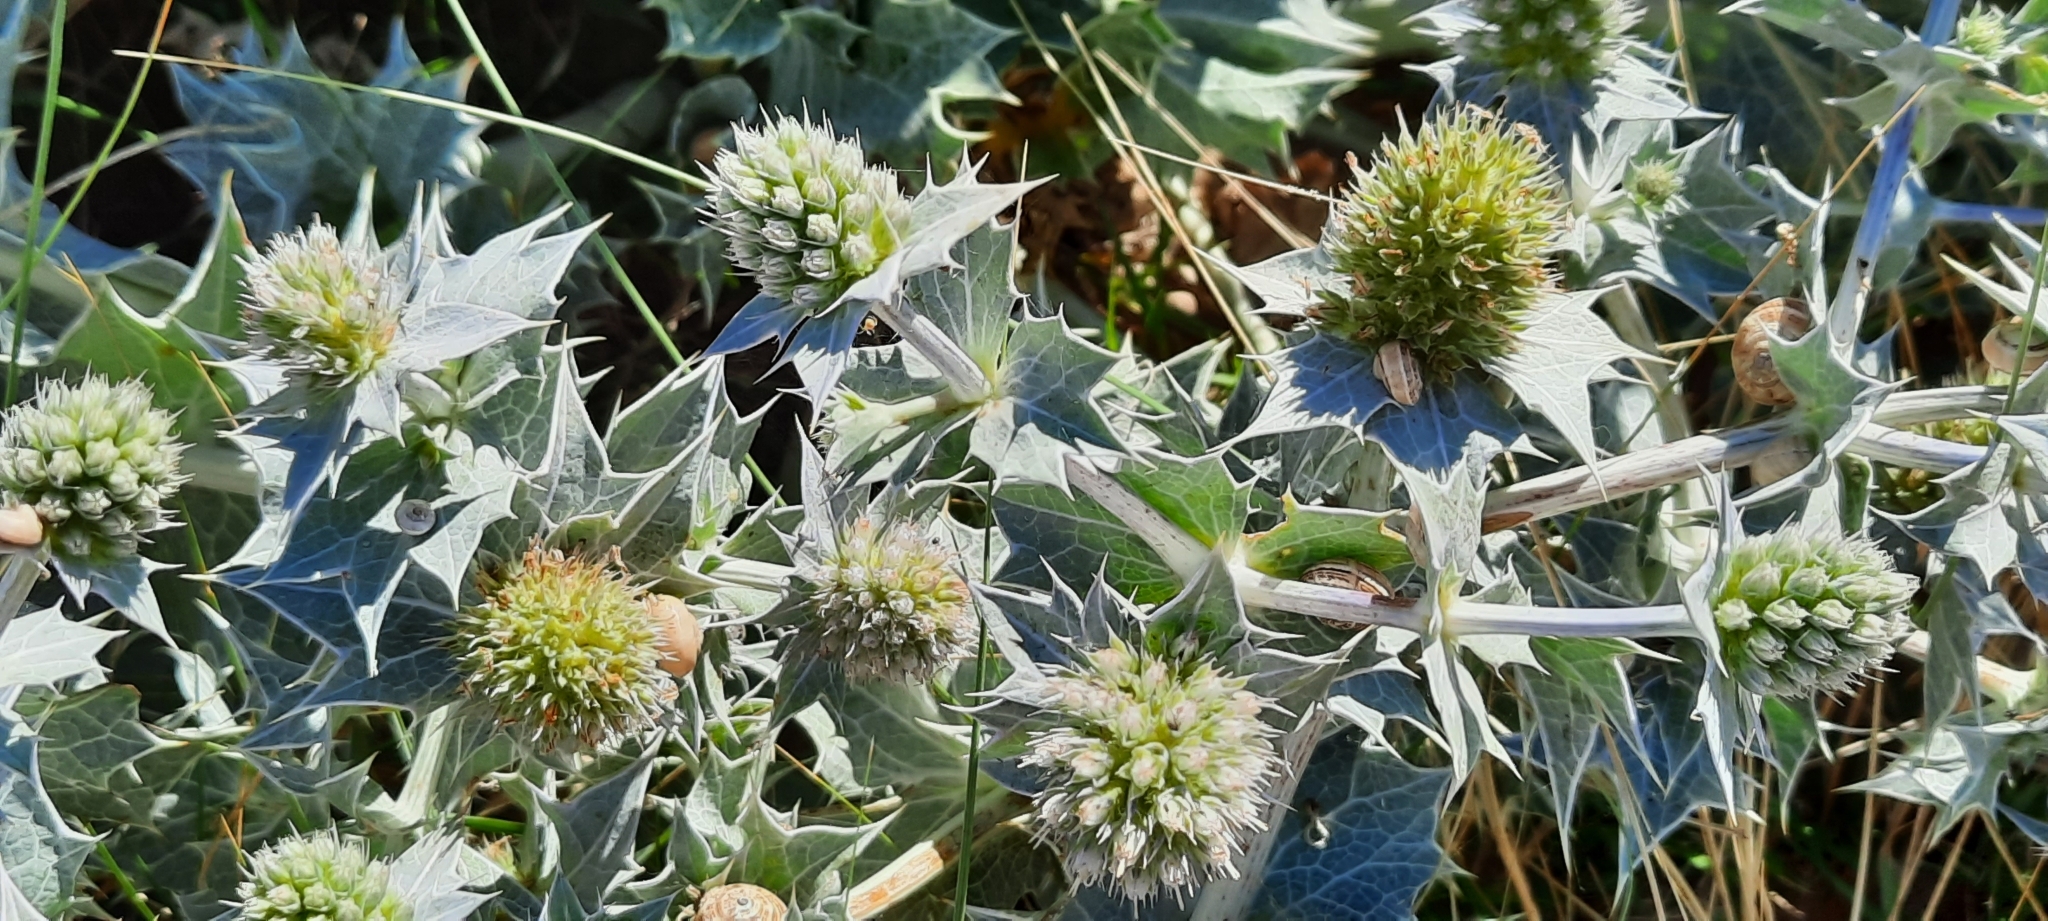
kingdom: Plantae
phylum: Tracheophyta
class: Magnoliopsida
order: Apiales
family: Apiaceae
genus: Eryngium
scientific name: Eryngium maritimum
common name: Sea-holly
